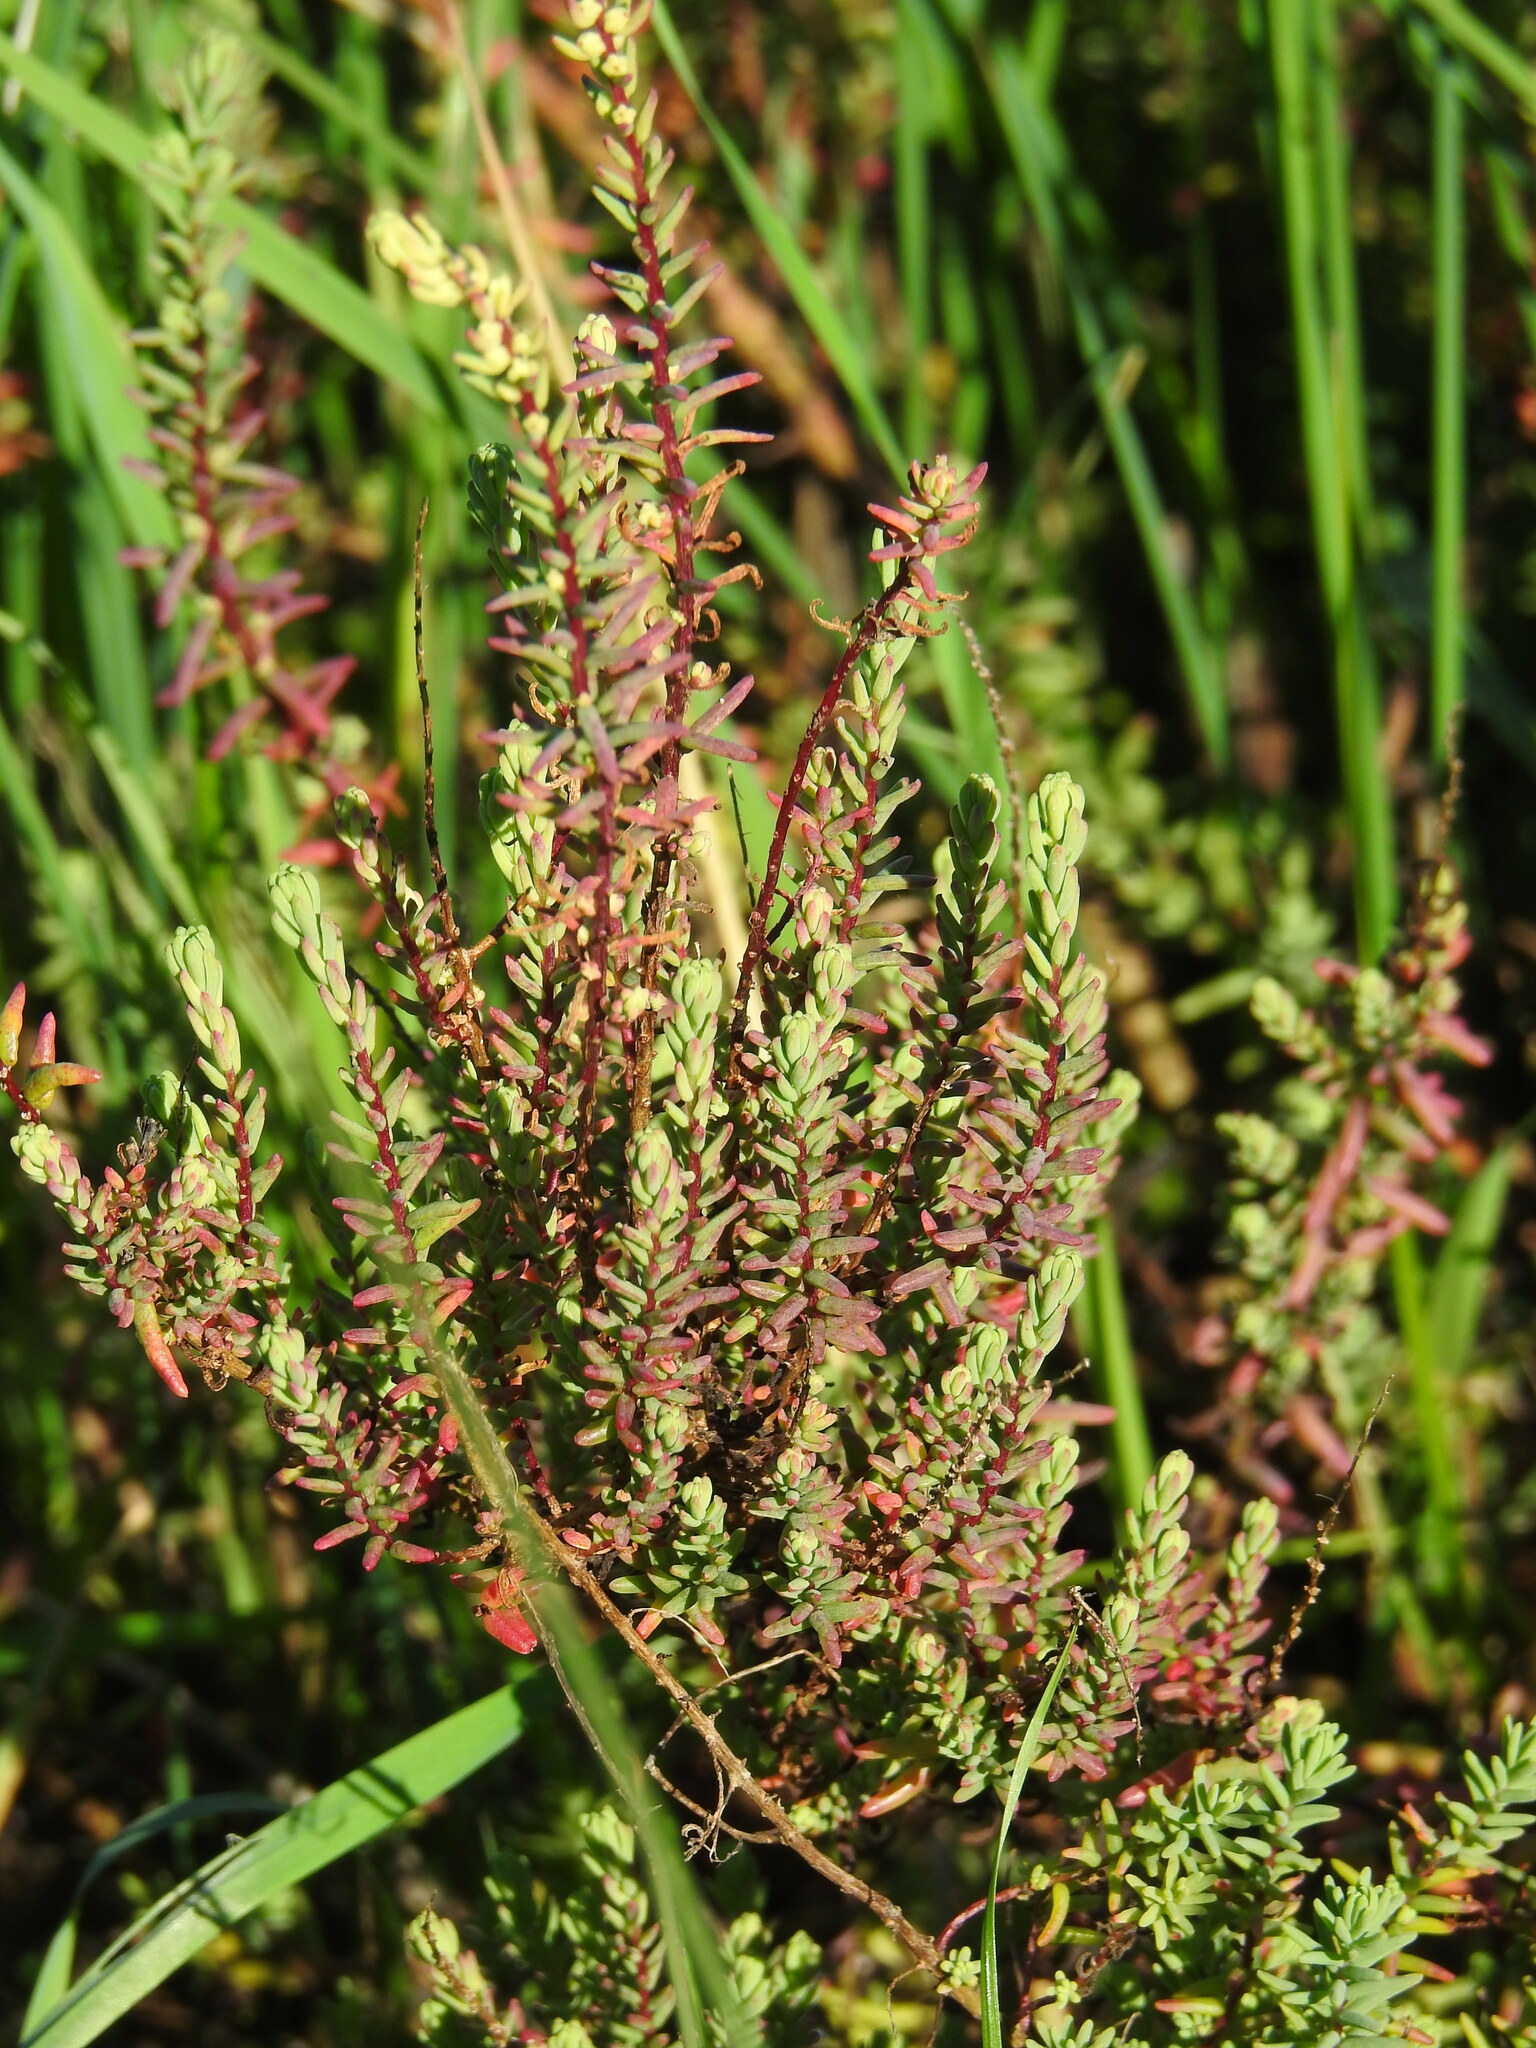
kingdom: Plantae
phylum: Tracheophyta
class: Magnoliopsida
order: Caryophyllales
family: Amaranthaceae
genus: Suaeda
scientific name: Suaeda vera
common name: Shrubby sea-blite
